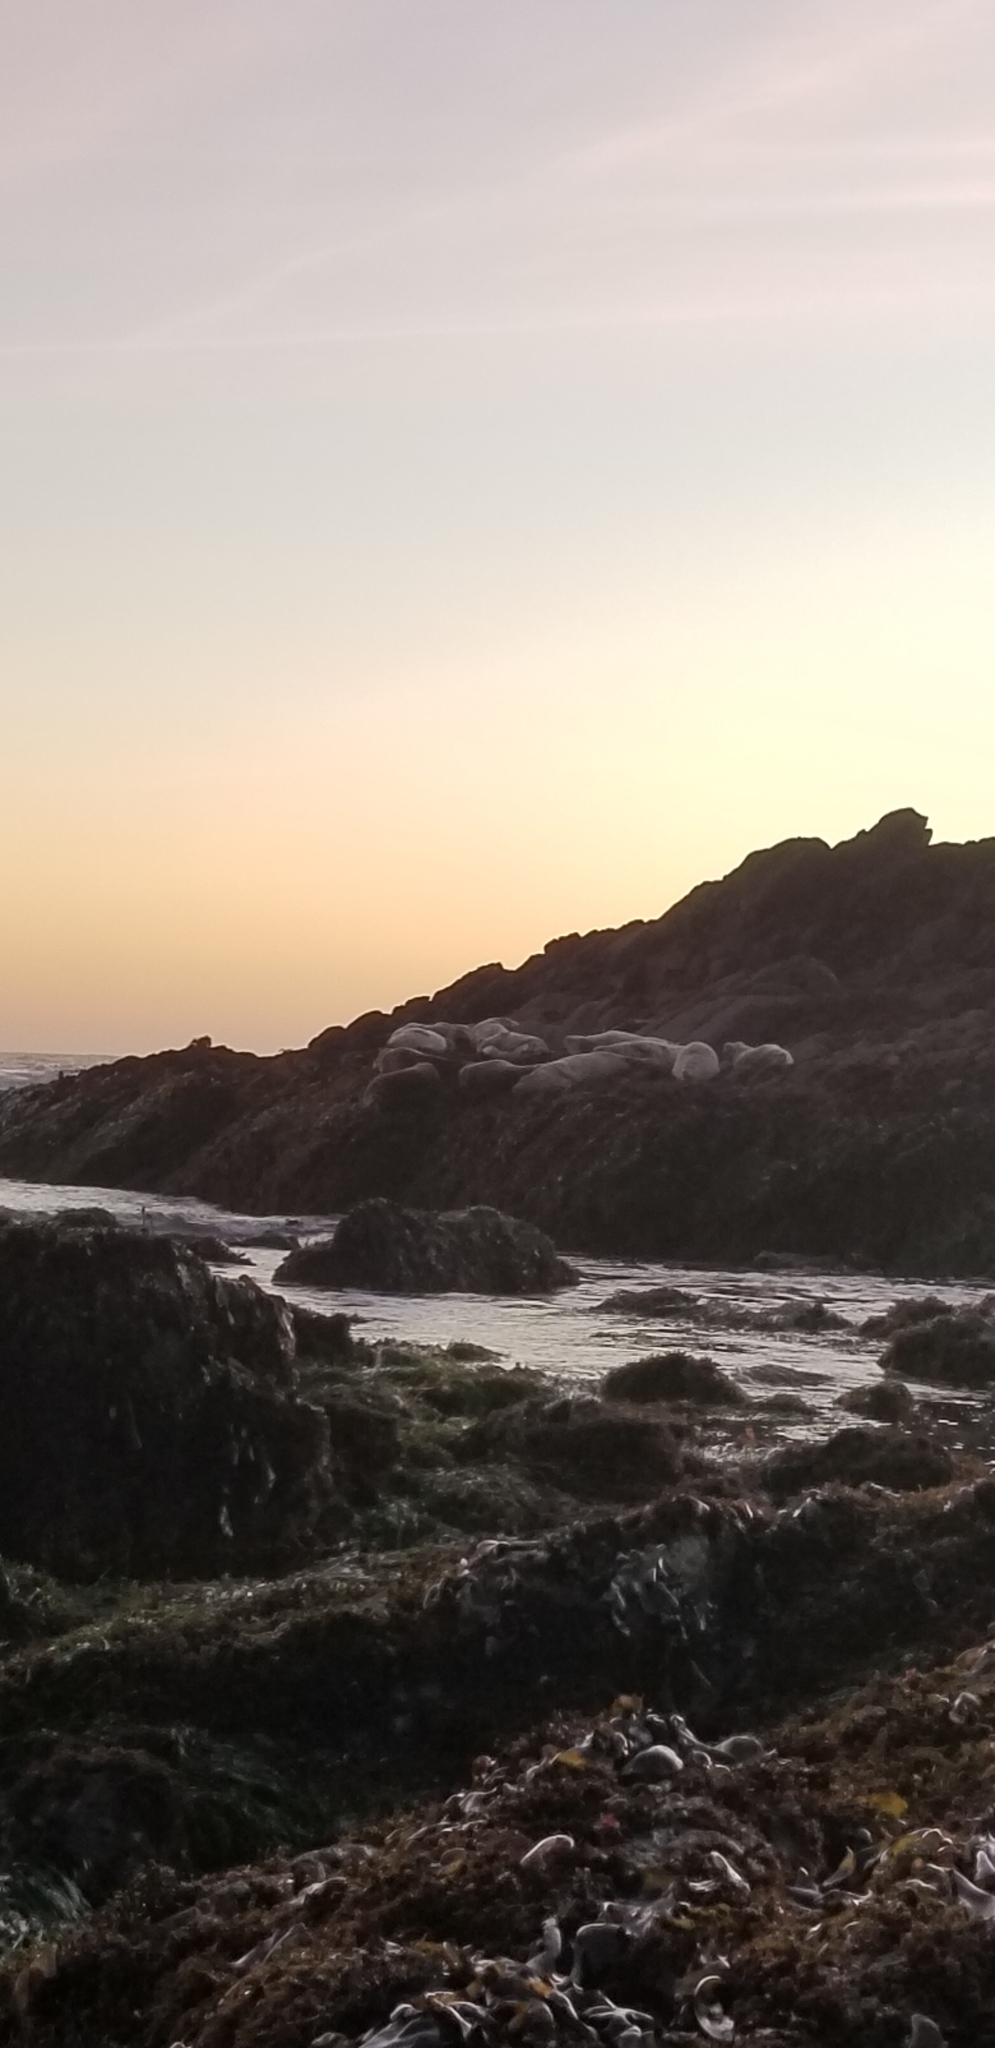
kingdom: Animalia
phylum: Chordata
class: Mammalia
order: Carnivora
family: Phocidae
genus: Phoca
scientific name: Phoca vitulina
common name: Harbor seal
